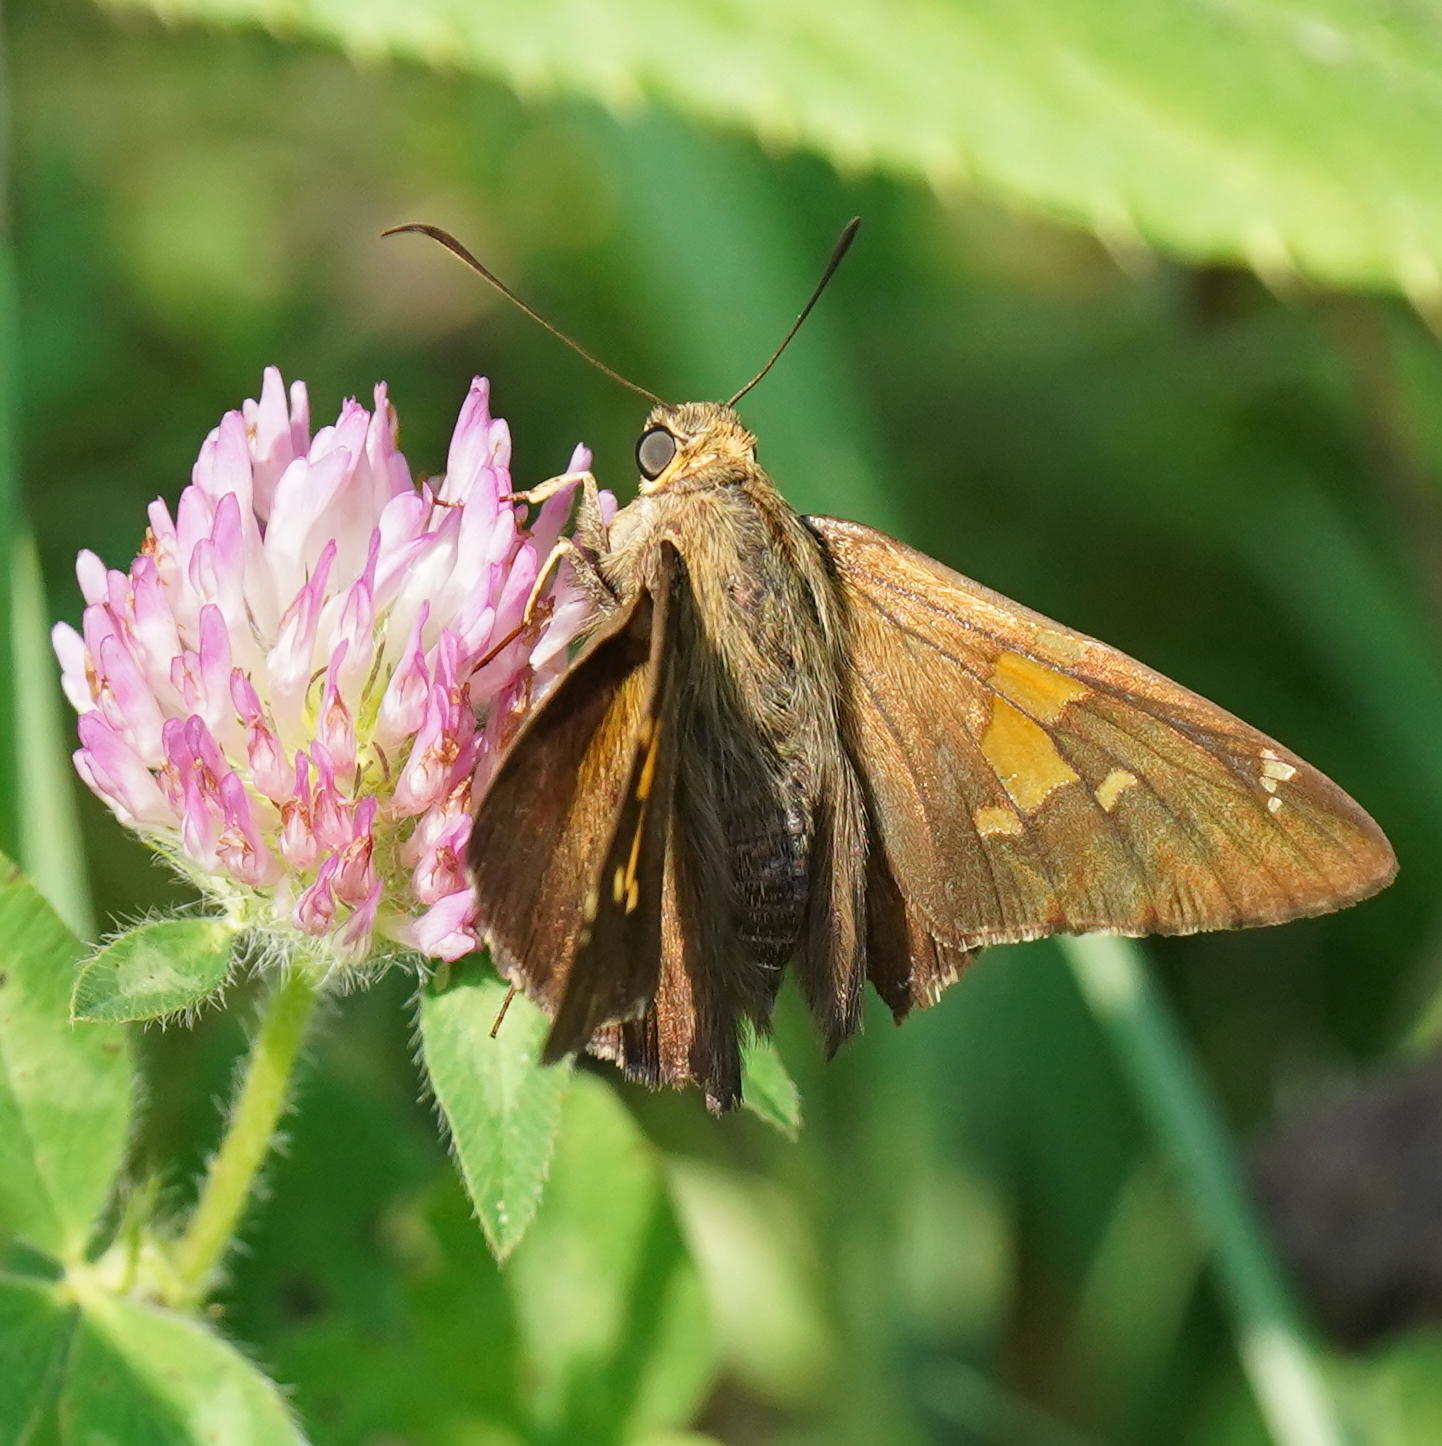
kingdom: Animalia
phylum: Arthropoda
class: Insecta
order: Lepidoptera
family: Hesperiidae
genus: Epargyreus
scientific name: Epargyreus clarus
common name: Silver-spotted skipper
